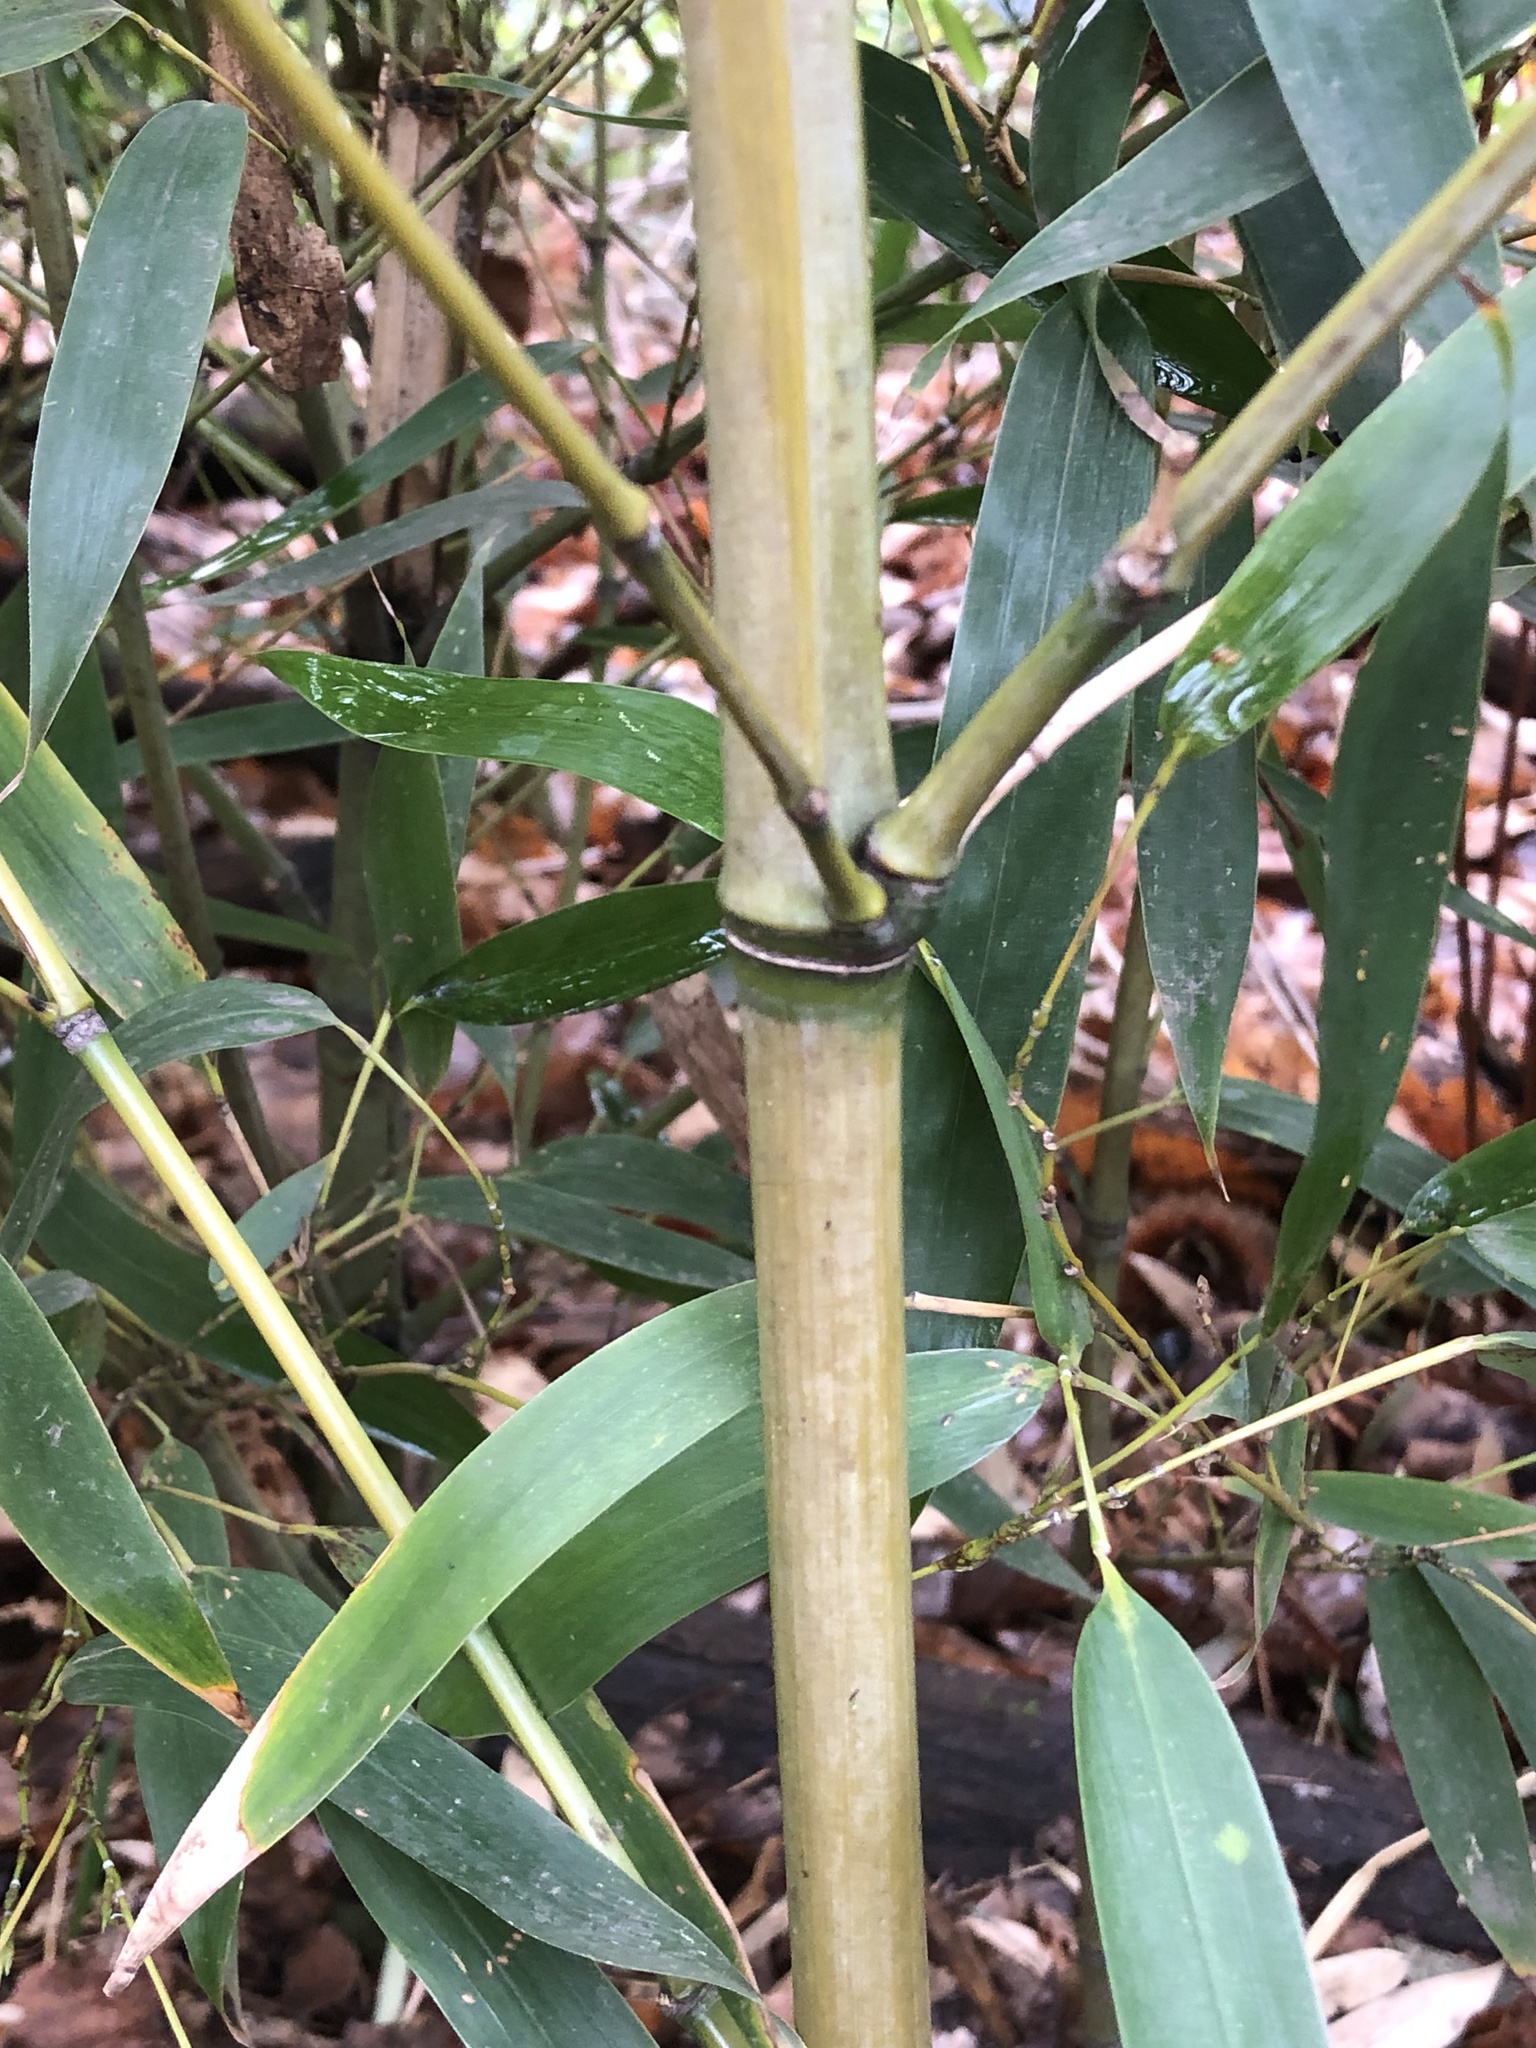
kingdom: Plantae
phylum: Tracheophyta
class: Liliopsida
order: Poales
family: Poaceae
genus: Phyllostachys
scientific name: Phyllostachys aurea
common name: Golden bamboo
